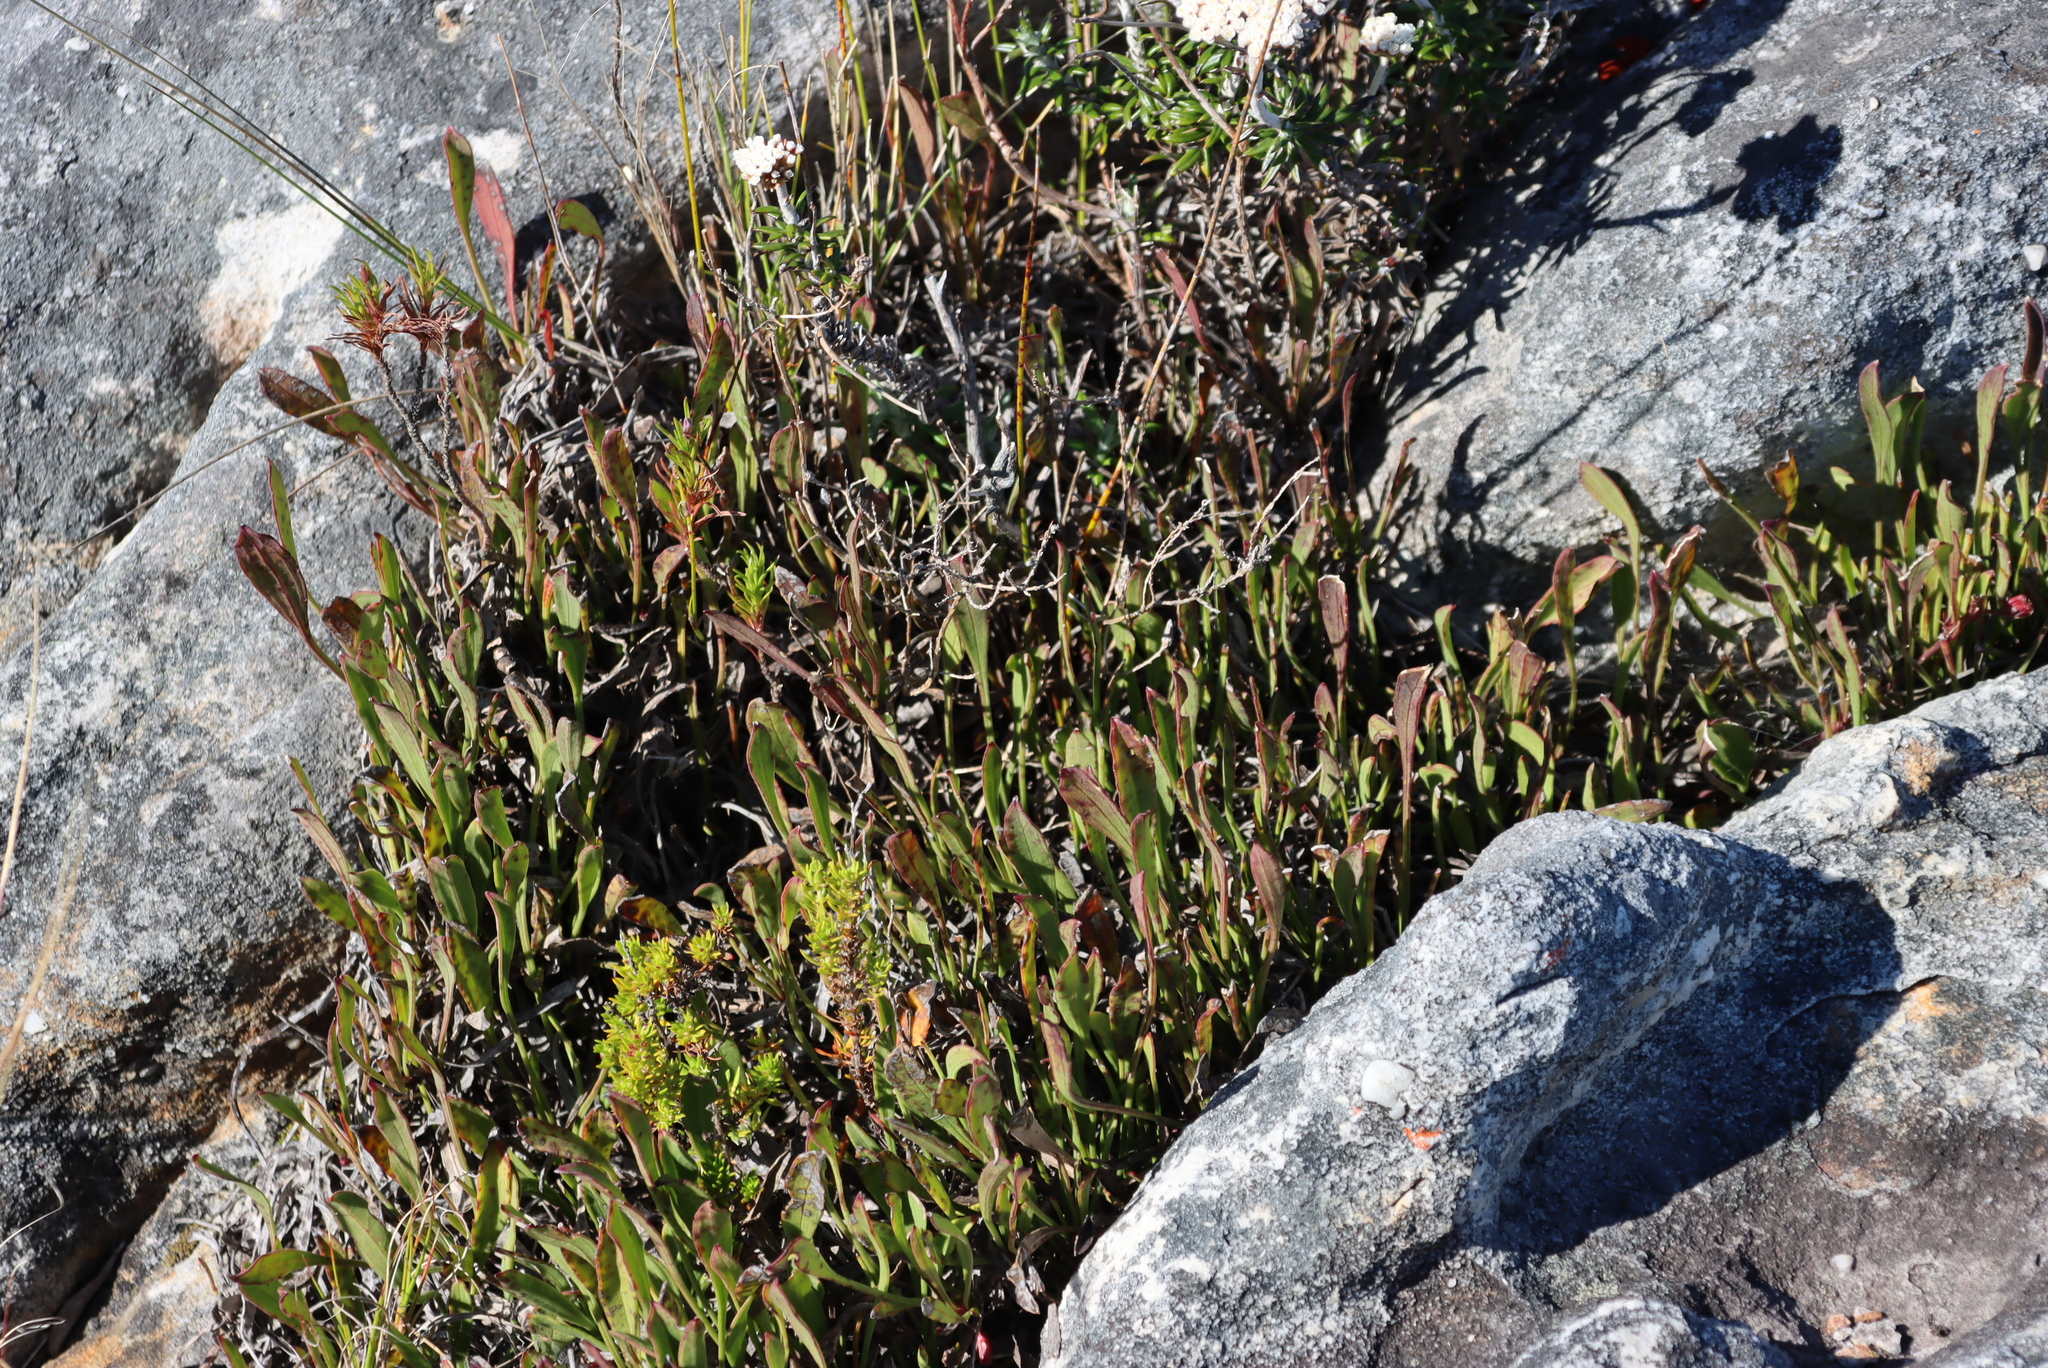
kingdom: Plantae
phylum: Tracheophyta
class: Magnoliopsida
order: Apiales
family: Apiaceae
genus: Centella
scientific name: Centella glabrata
